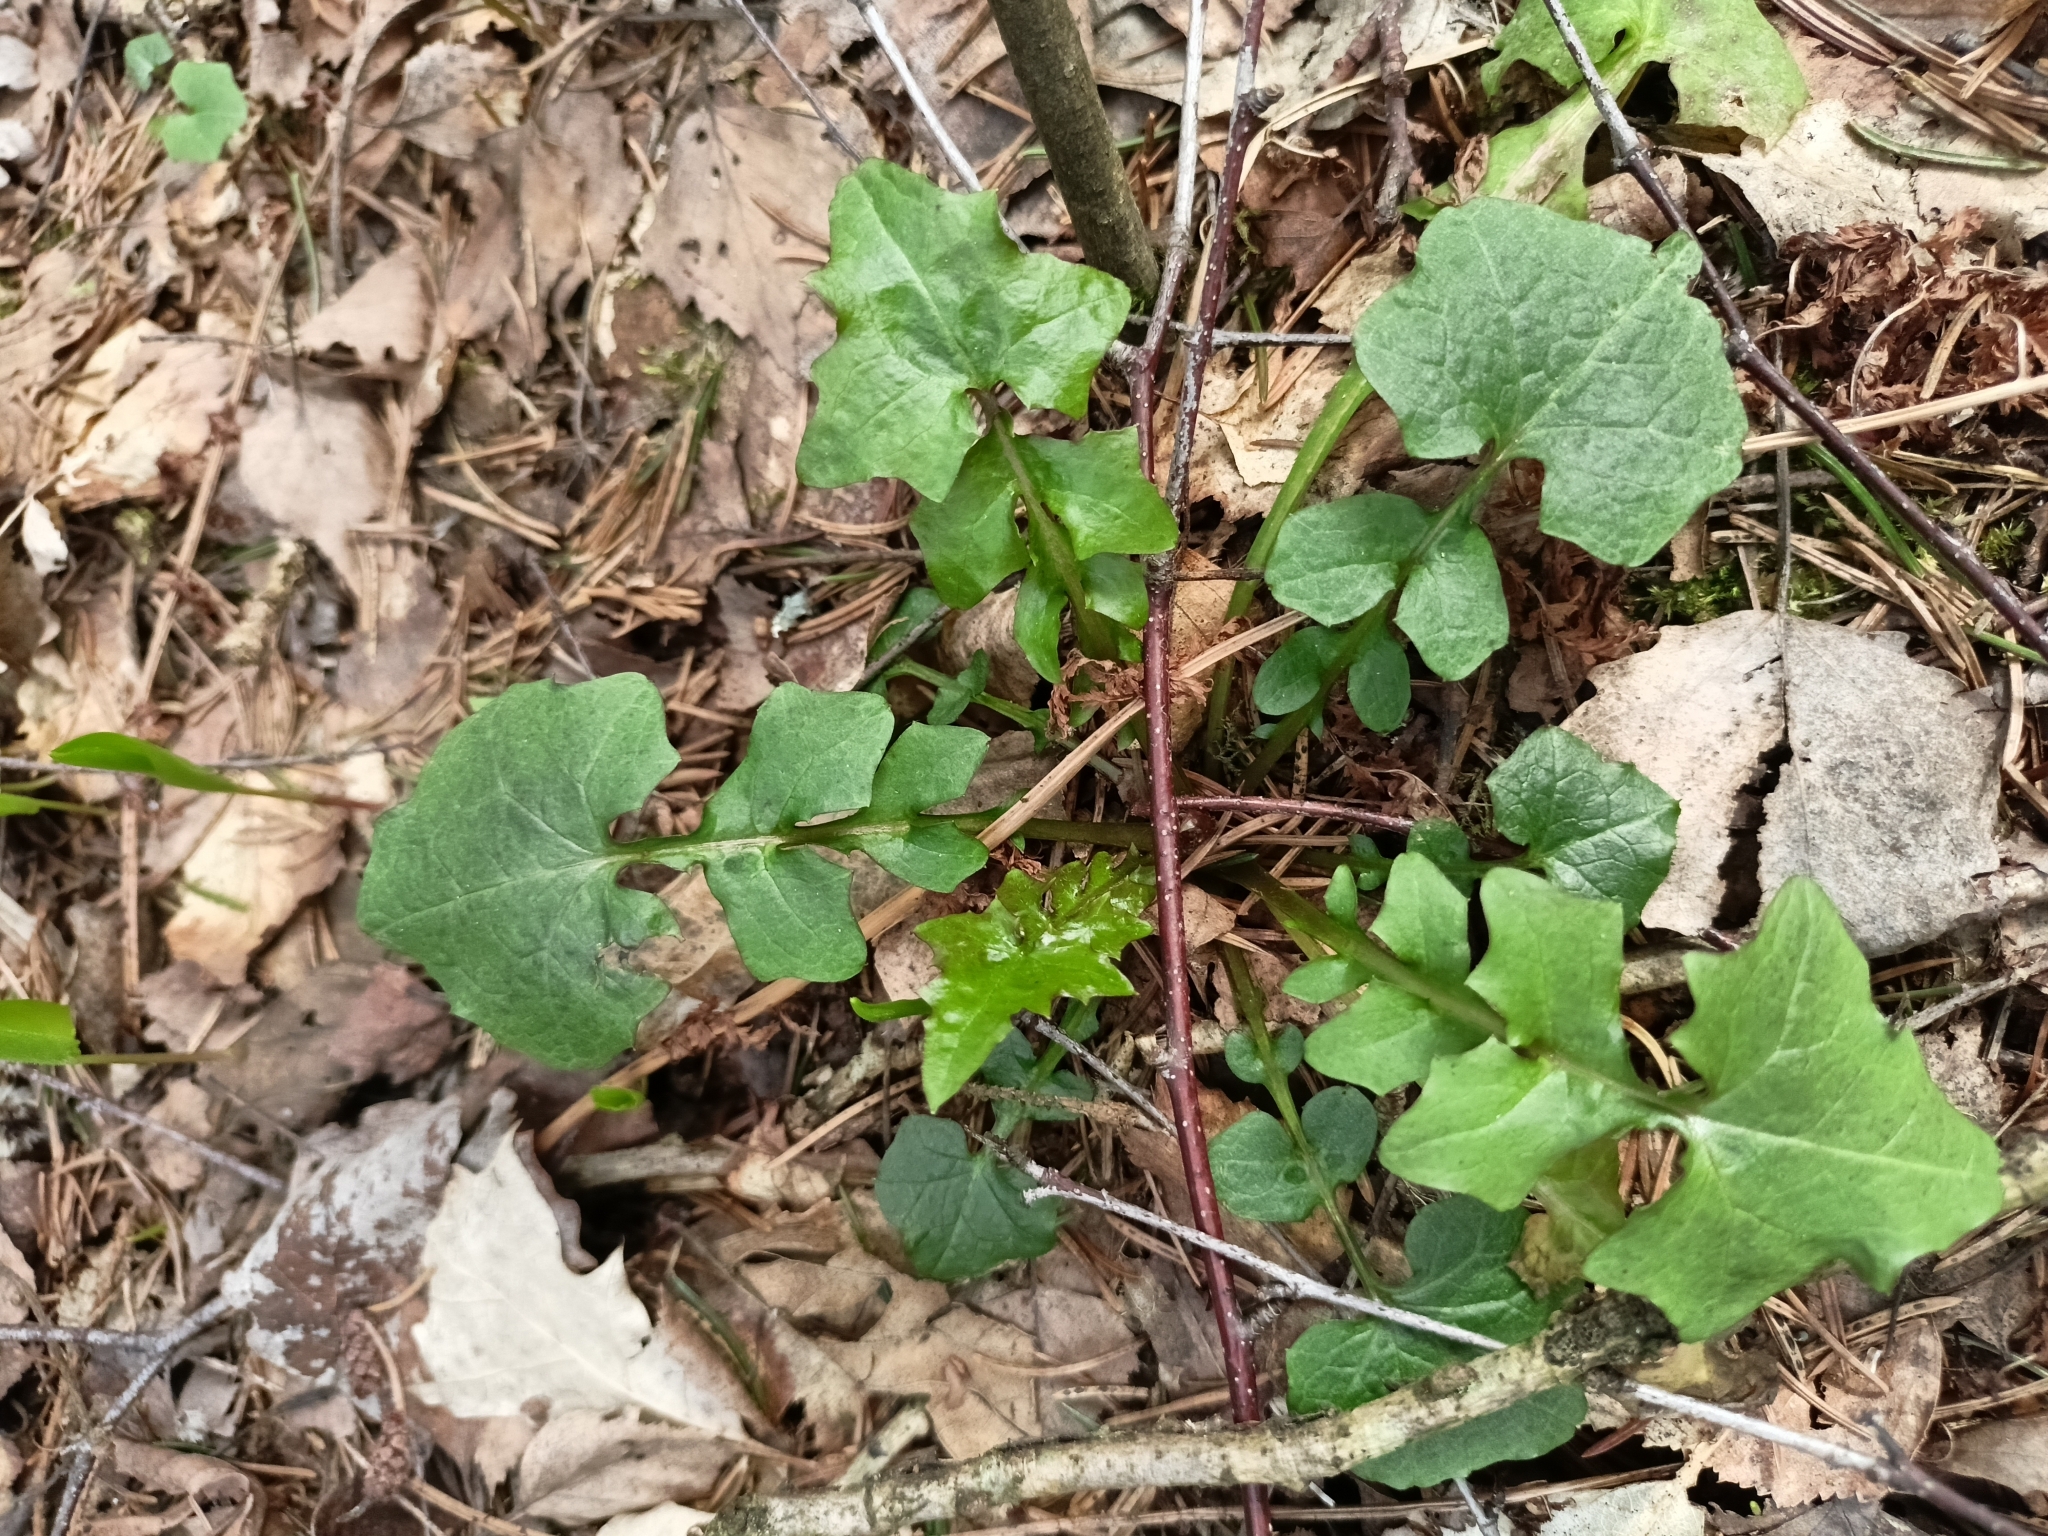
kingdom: Plantae
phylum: Tracheophyta
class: Magnoliopsida
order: Asterales
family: Asteraceae
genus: Mycelis
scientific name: Mycelis muralis
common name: Wall lettuce
